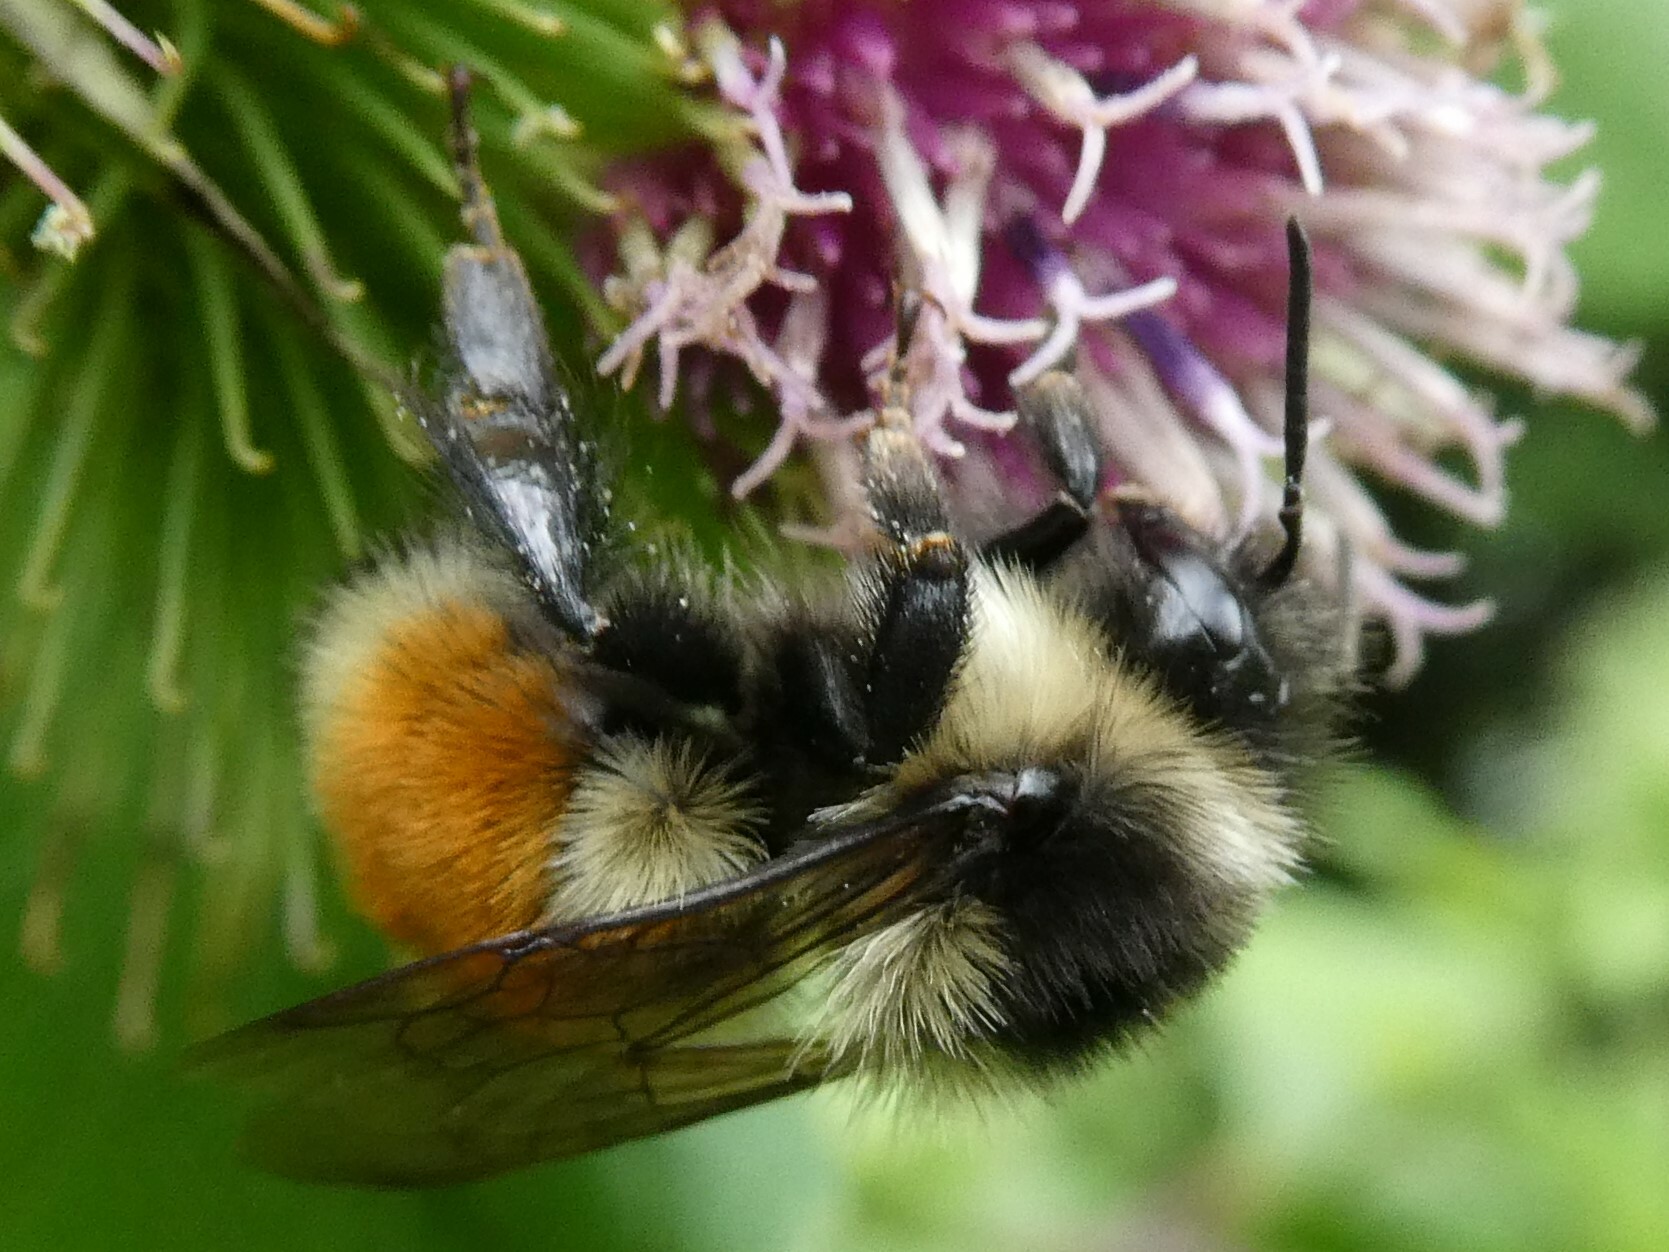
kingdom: Animalia
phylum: Arthropoda
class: Insecta
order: Hymenoptera
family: Apidae
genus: Bombus
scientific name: Bombus ternarius
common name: Tri-colored bumble bee
